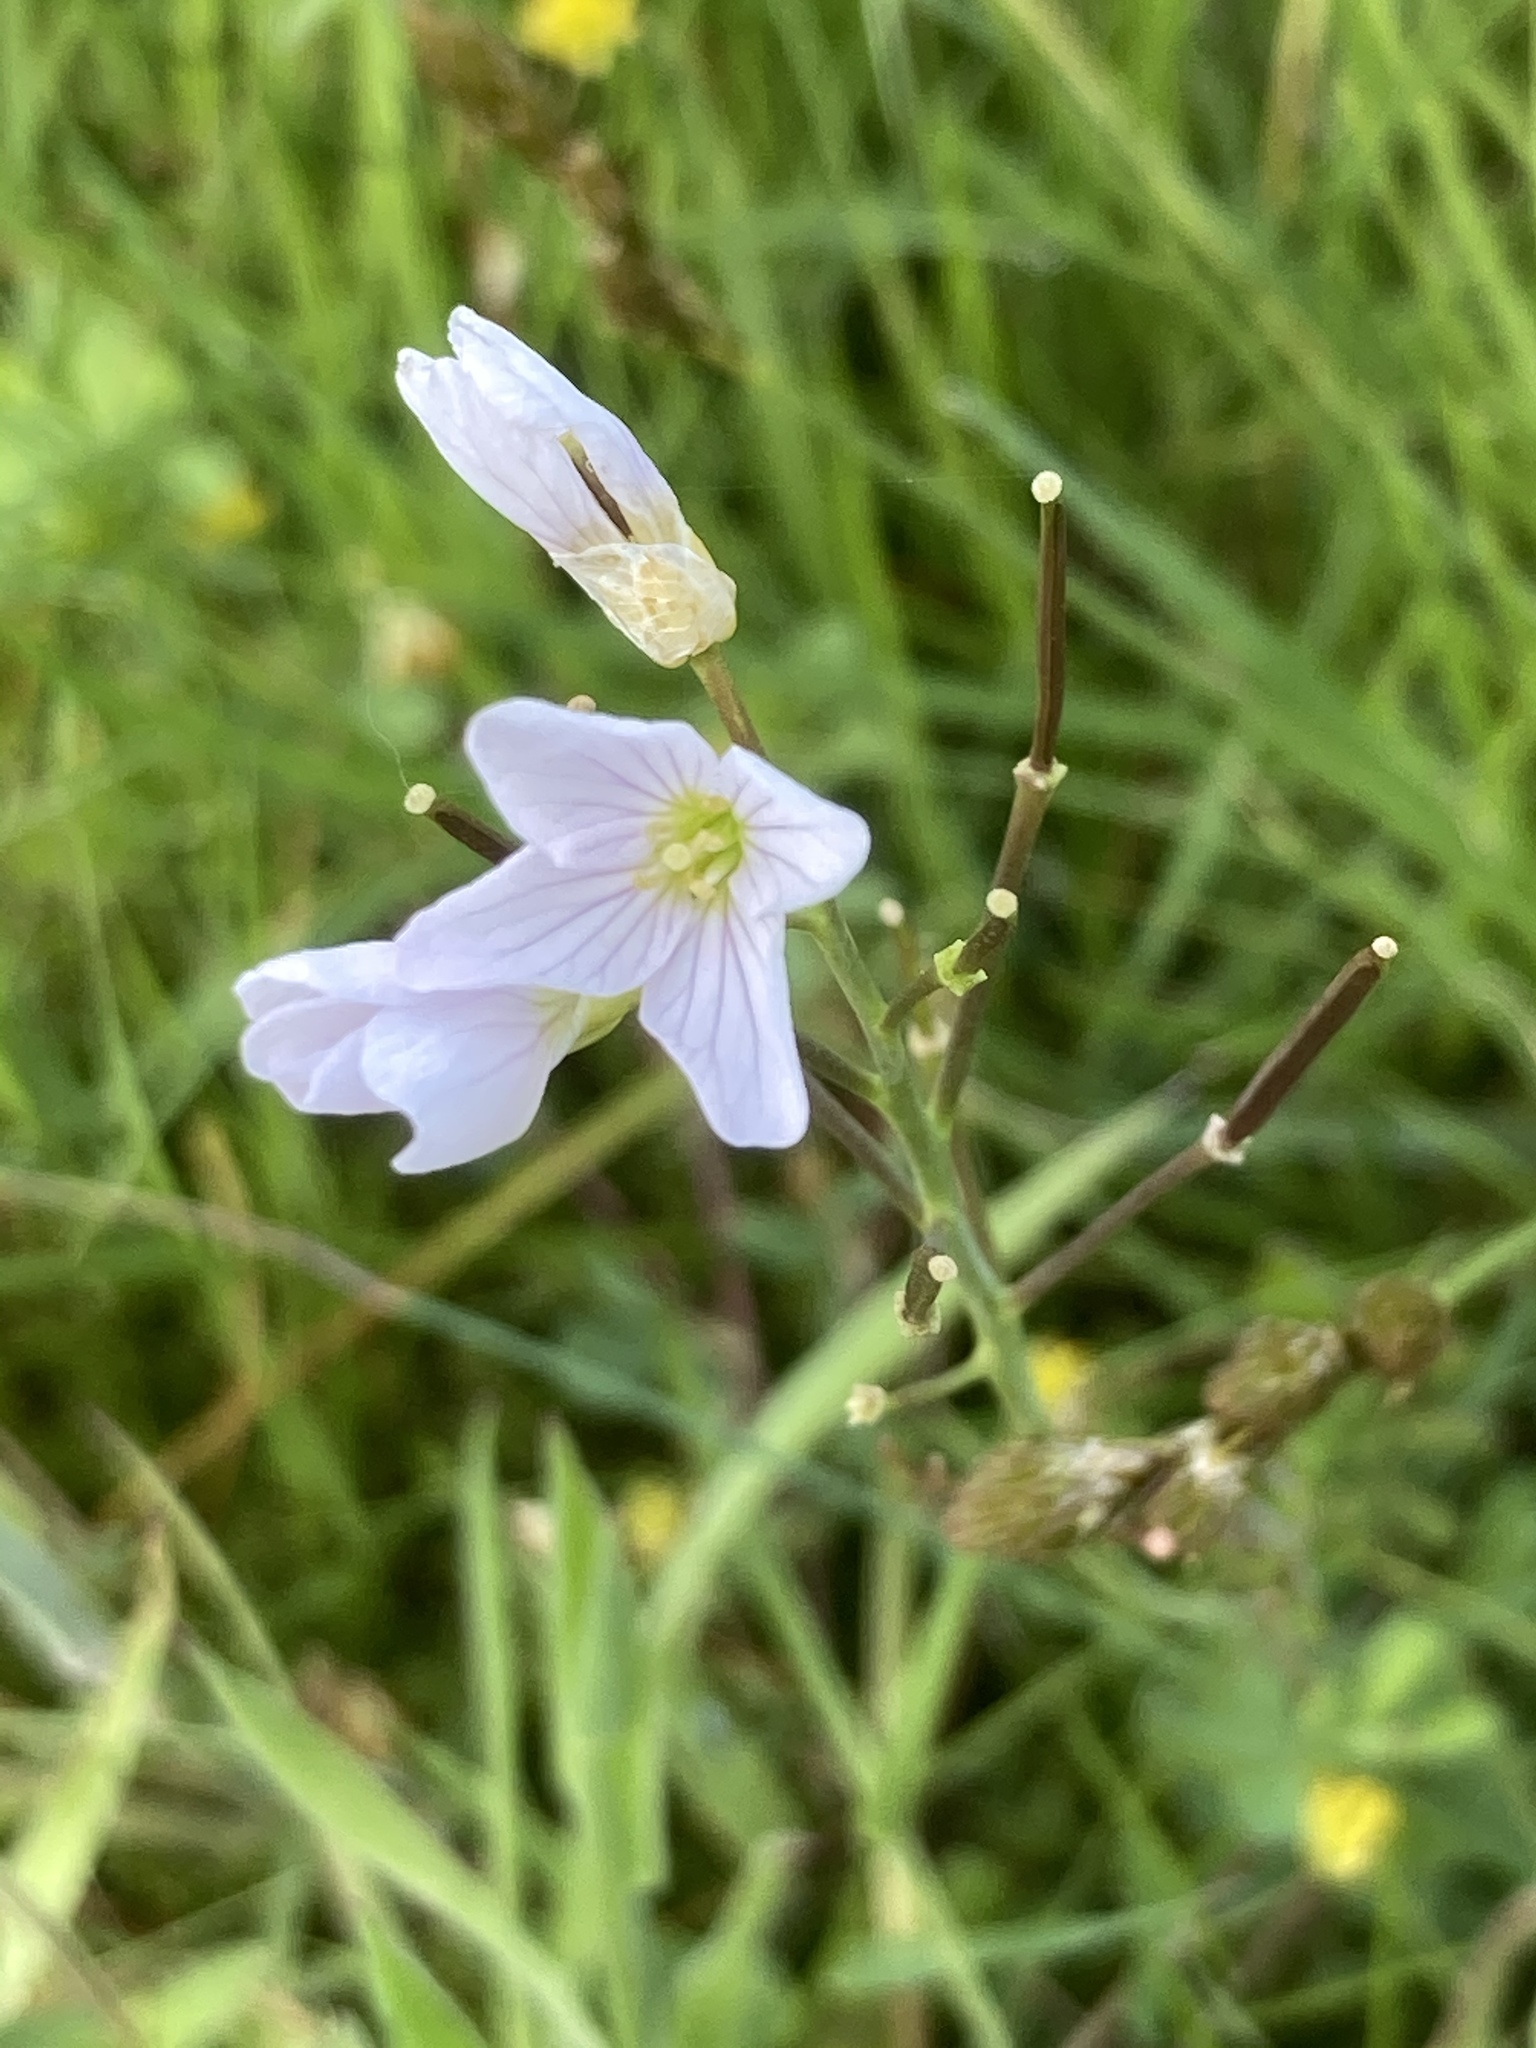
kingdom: Plantae
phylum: Tracheophyta
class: Magnoliopsida
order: Brassicales
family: Brassicaceae
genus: Cardamine
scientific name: Cardamine pratensis
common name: Cuckoo flower
